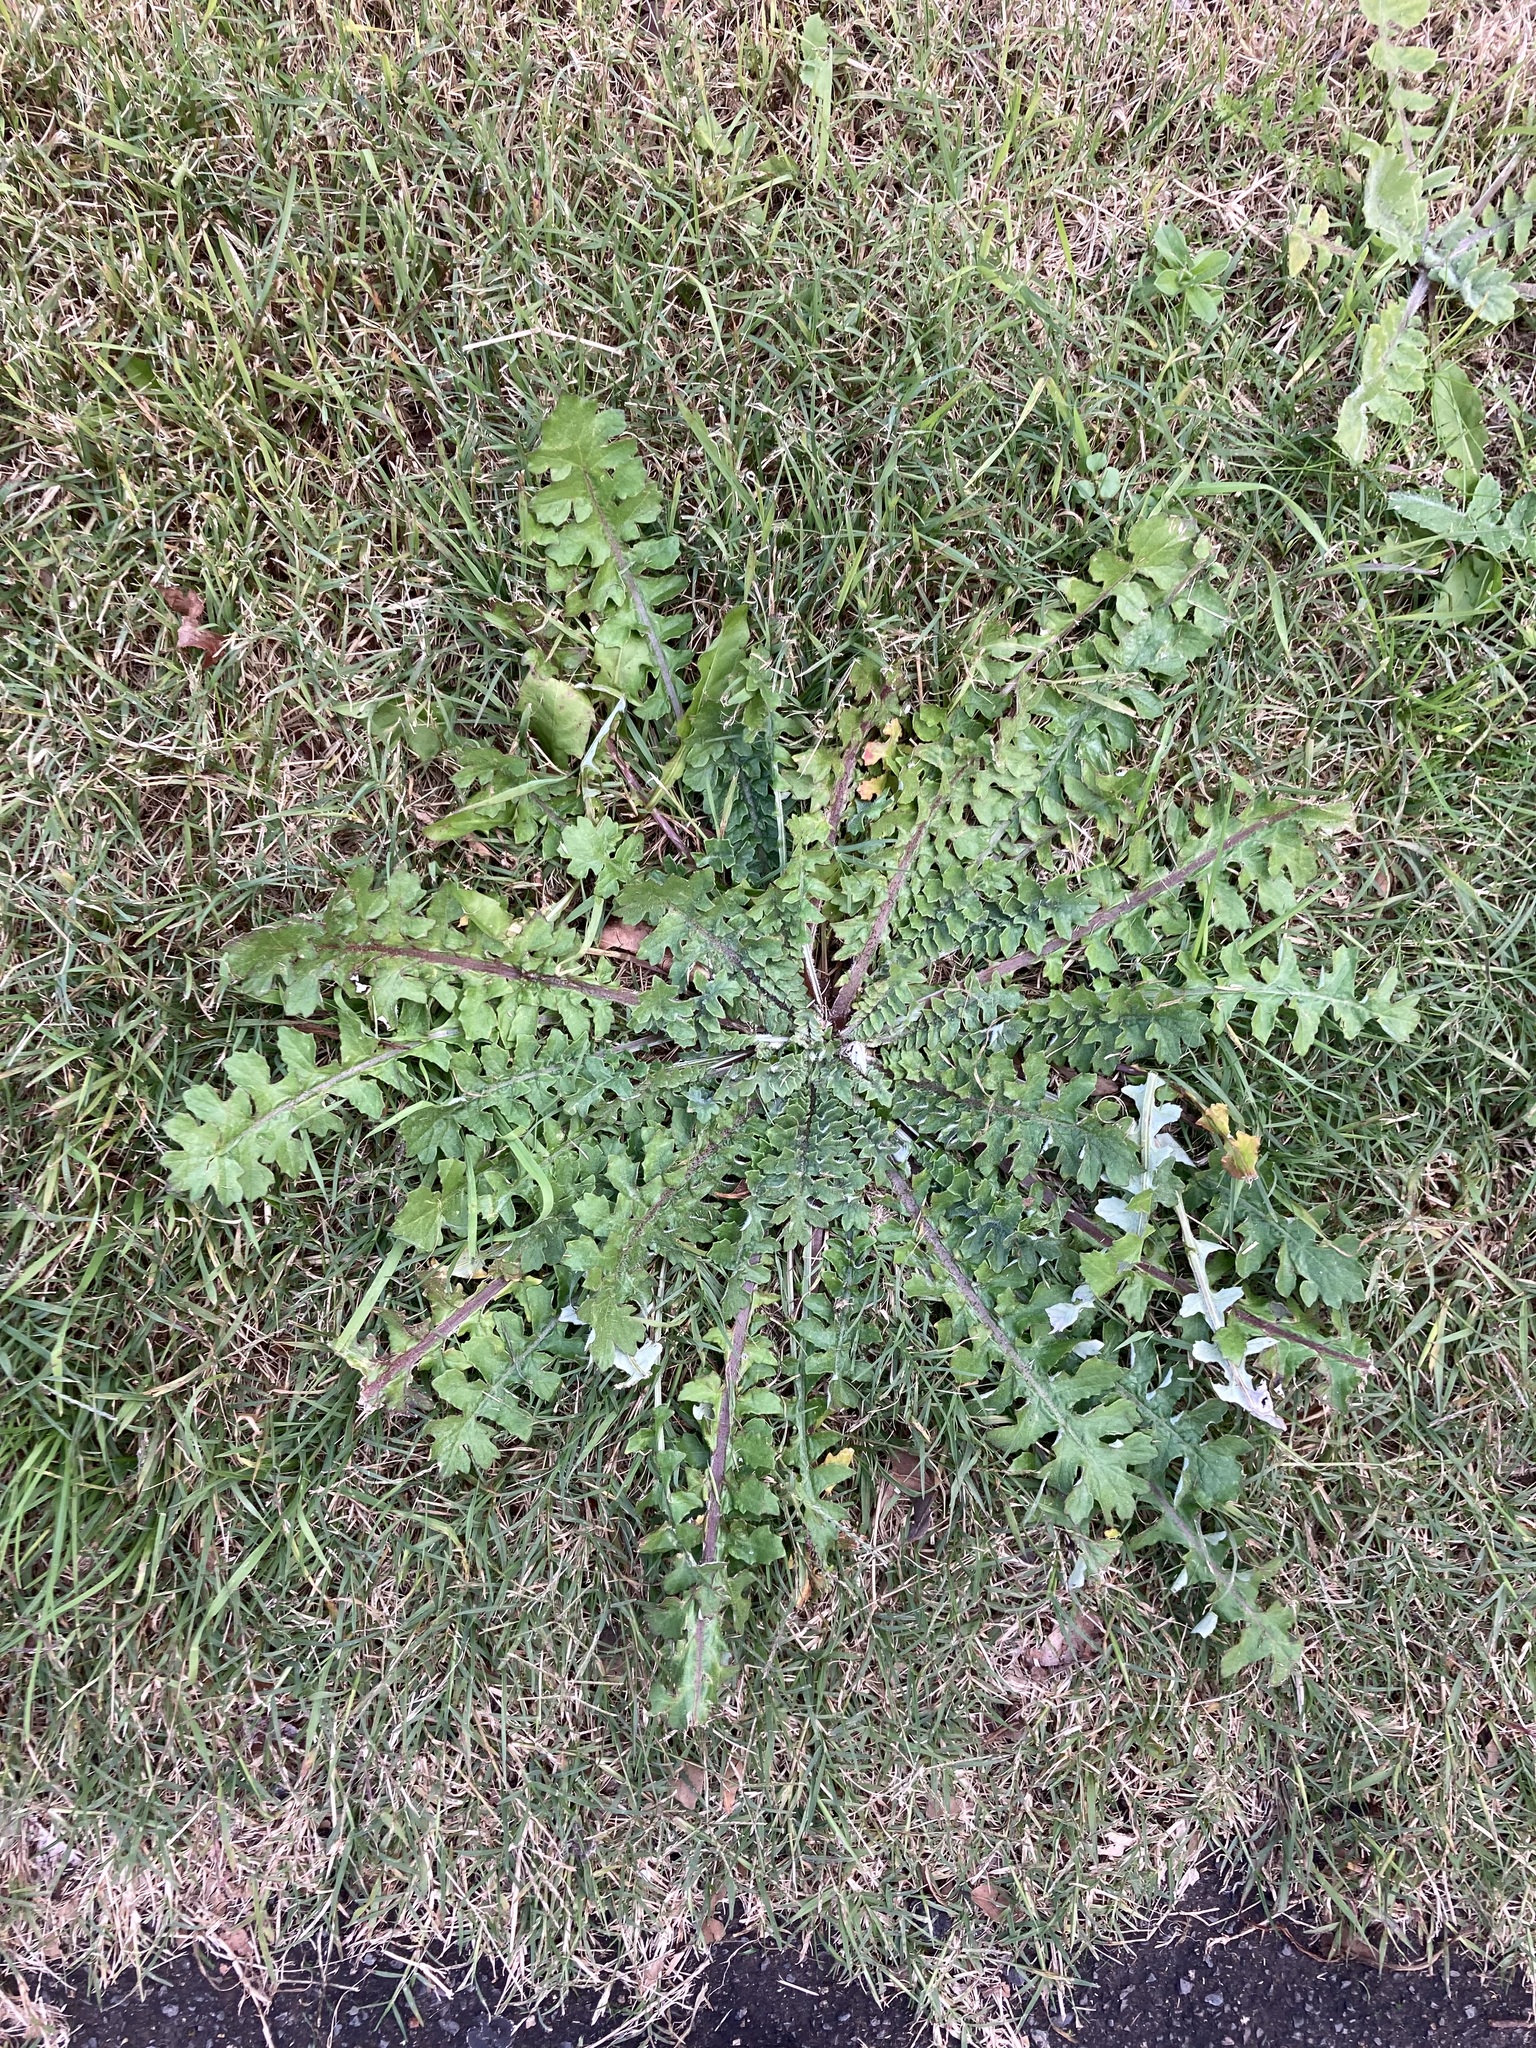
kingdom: Plantae
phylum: Tracheophyta
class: Magnoliopsida
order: Asterales
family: Asteraceae
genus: Arctotheca
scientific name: Arctotheca calendula
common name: Capeweed
